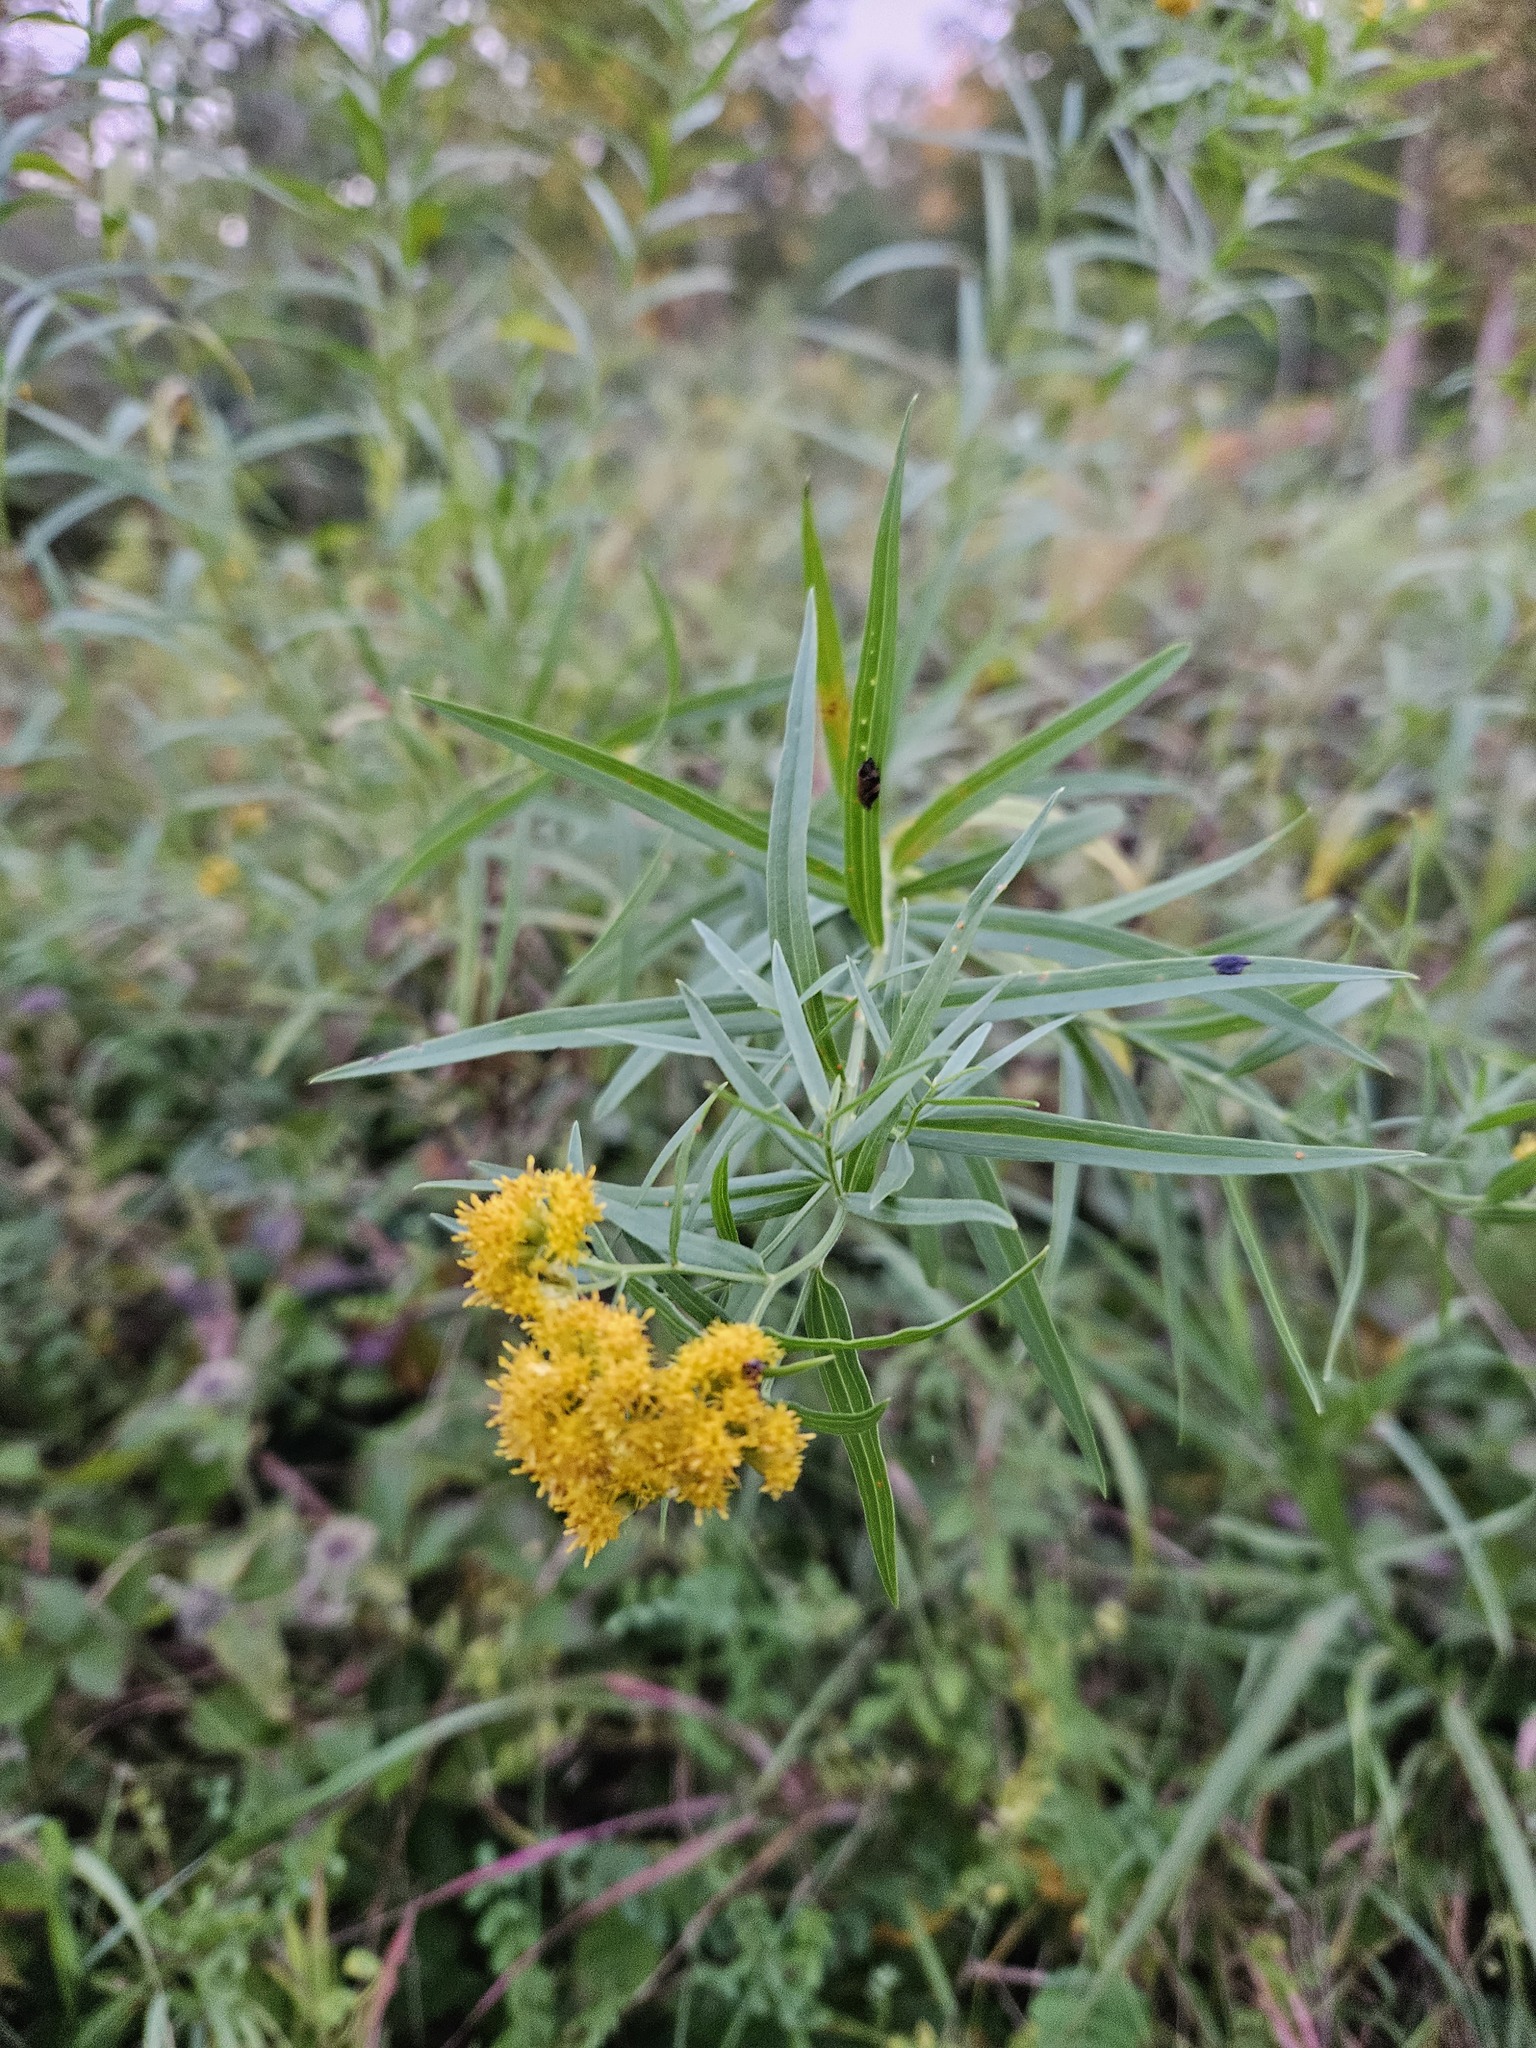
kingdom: Plantae
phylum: Tracheophyta
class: Magnoliopsida
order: Asterales
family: Asteraceae
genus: Euthamia
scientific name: Euthamia graminifolia
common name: Common goldentop
